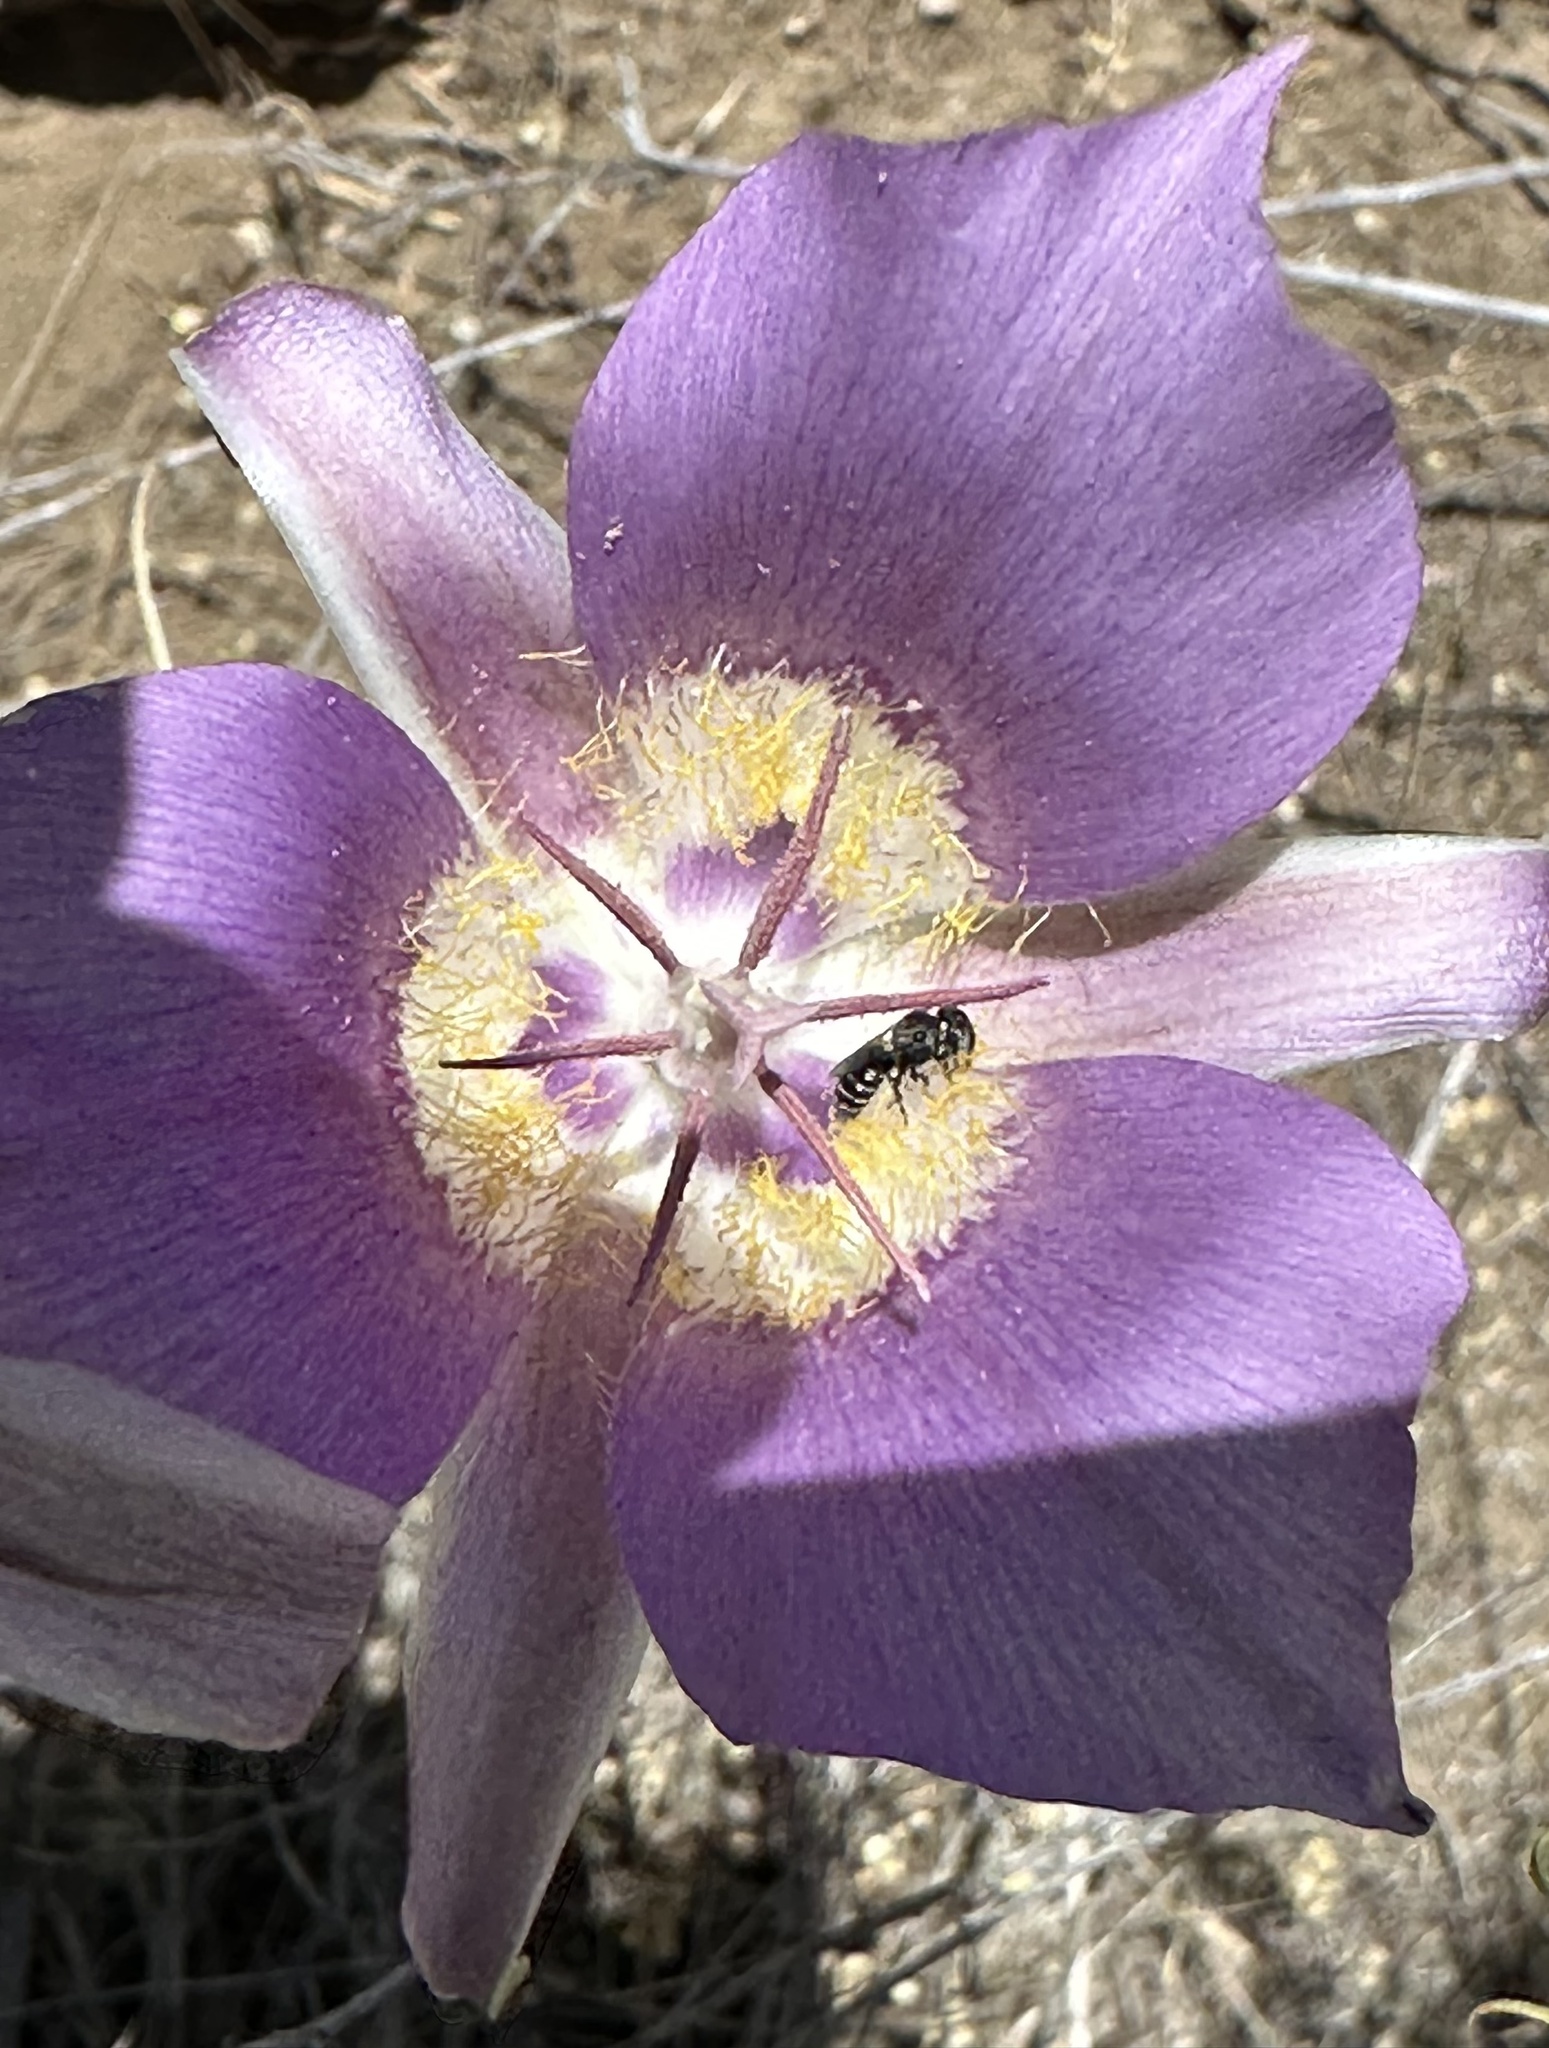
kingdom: Plantae
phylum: Tracheophyta
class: Liliopsida
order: Liliales
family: Liliaceae
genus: Calochortus
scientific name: Calochortus macrocarpus
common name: Green-band mariposa lily
